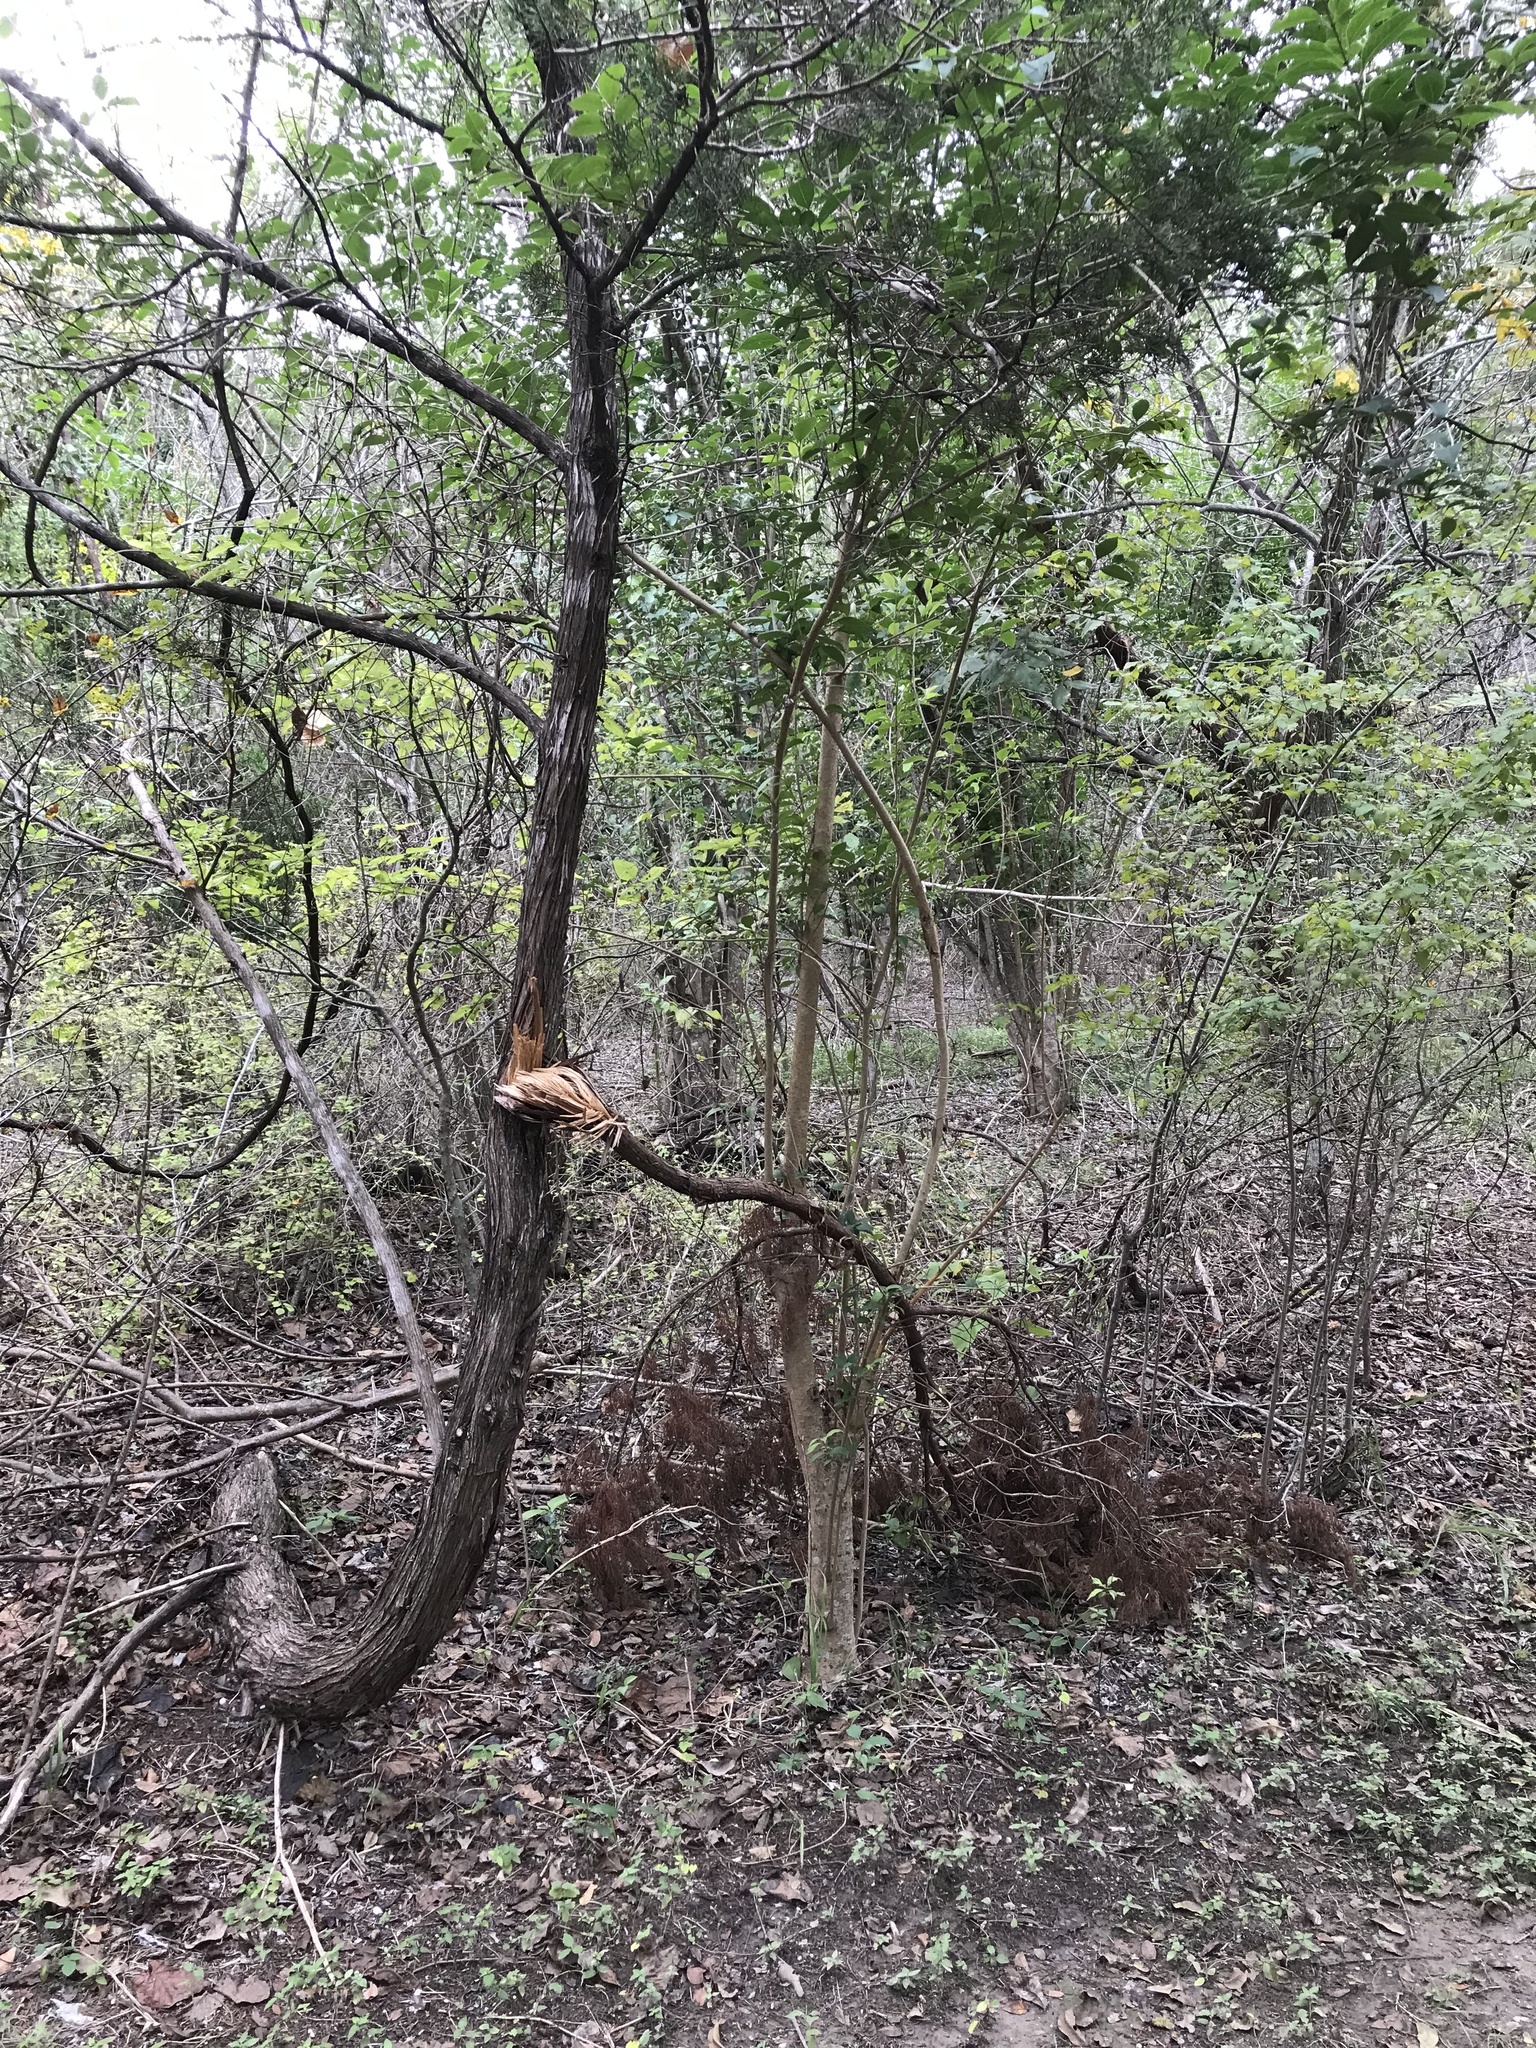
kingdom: Plantae
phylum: Tracheophyta
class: Magnoliopsida
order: Lamiales
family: Oleaceae
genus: Ligustrum
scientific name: Ligustrum lucidum
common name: Glossy privet
